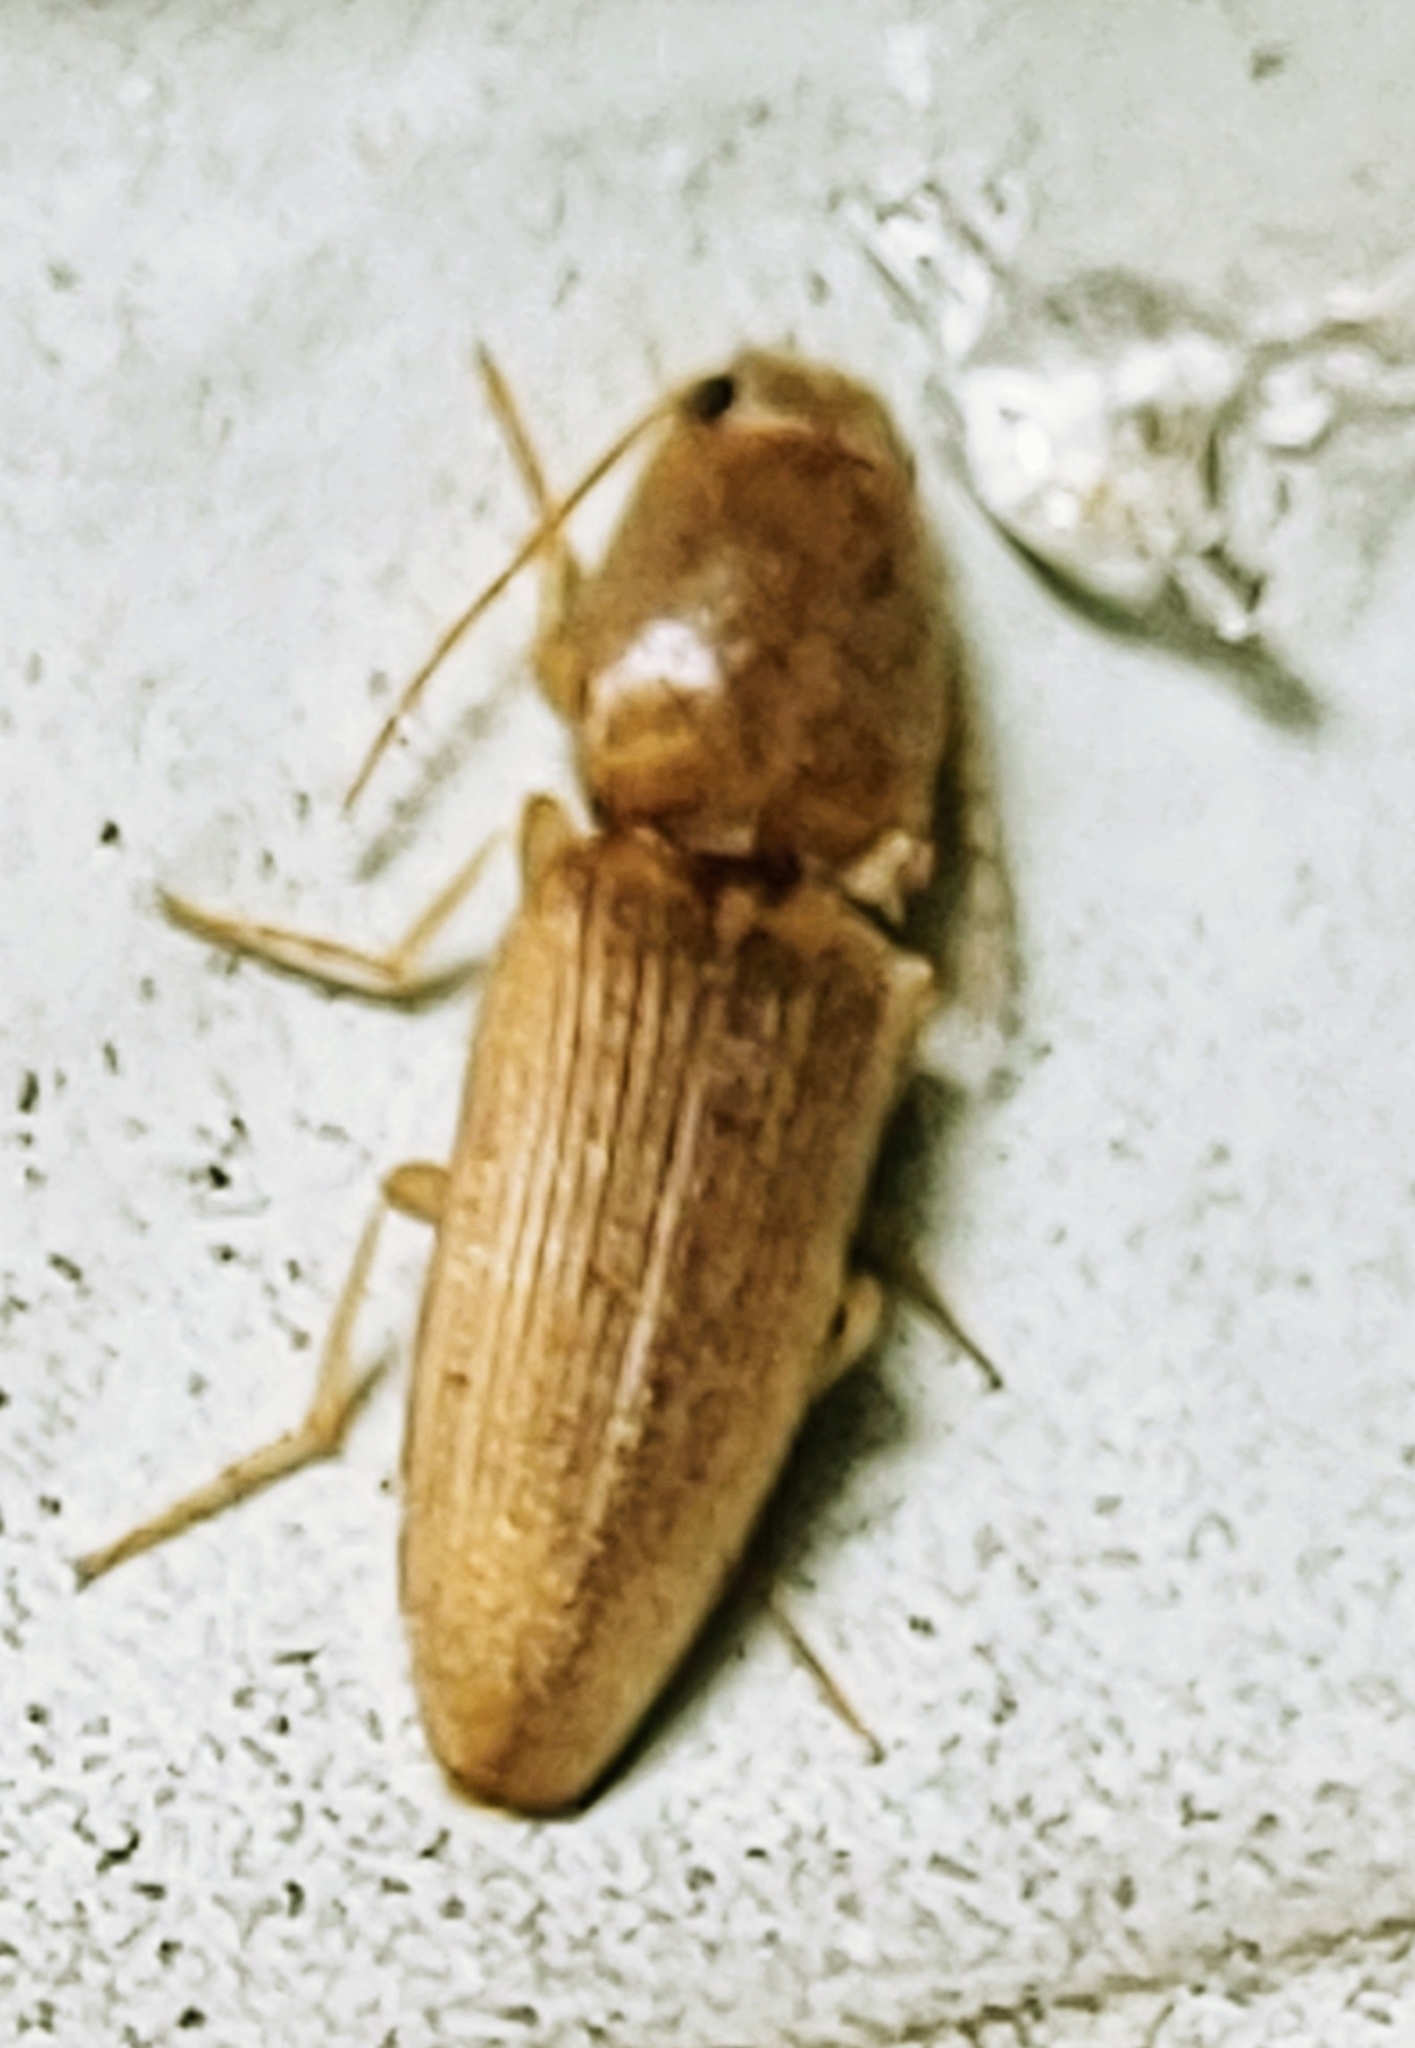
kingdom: Animalia
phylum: Arthropoda
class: Insecta
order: Coleoptera
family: Elateridae
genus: Monocrepidius
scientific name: Monocrepidius scissus
